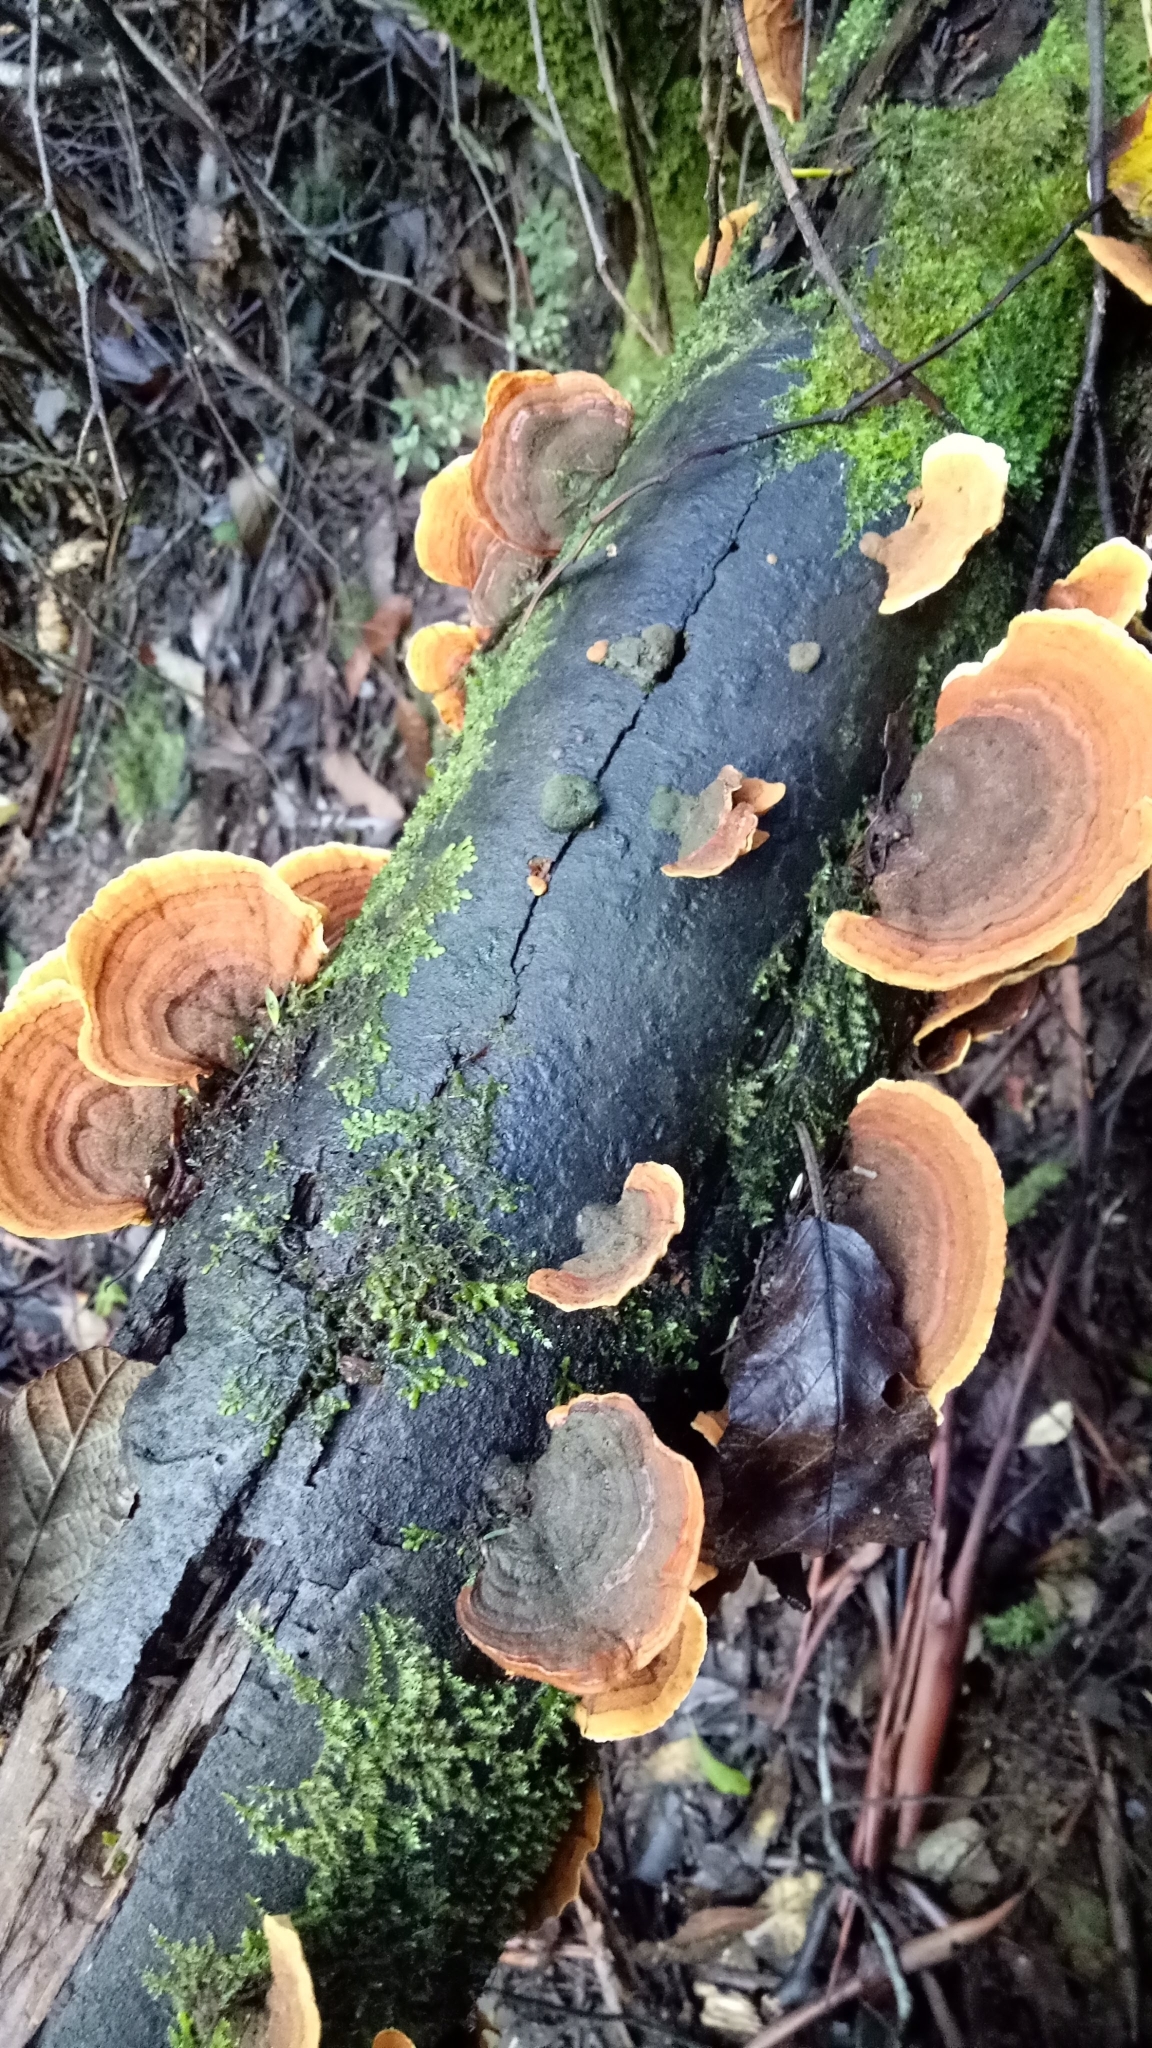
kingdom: Fungi
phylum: Basidiomycota
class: Agaricomycetes
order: Russulales
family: Stereaceae
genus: Stereum
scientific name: Stereum versicolor
